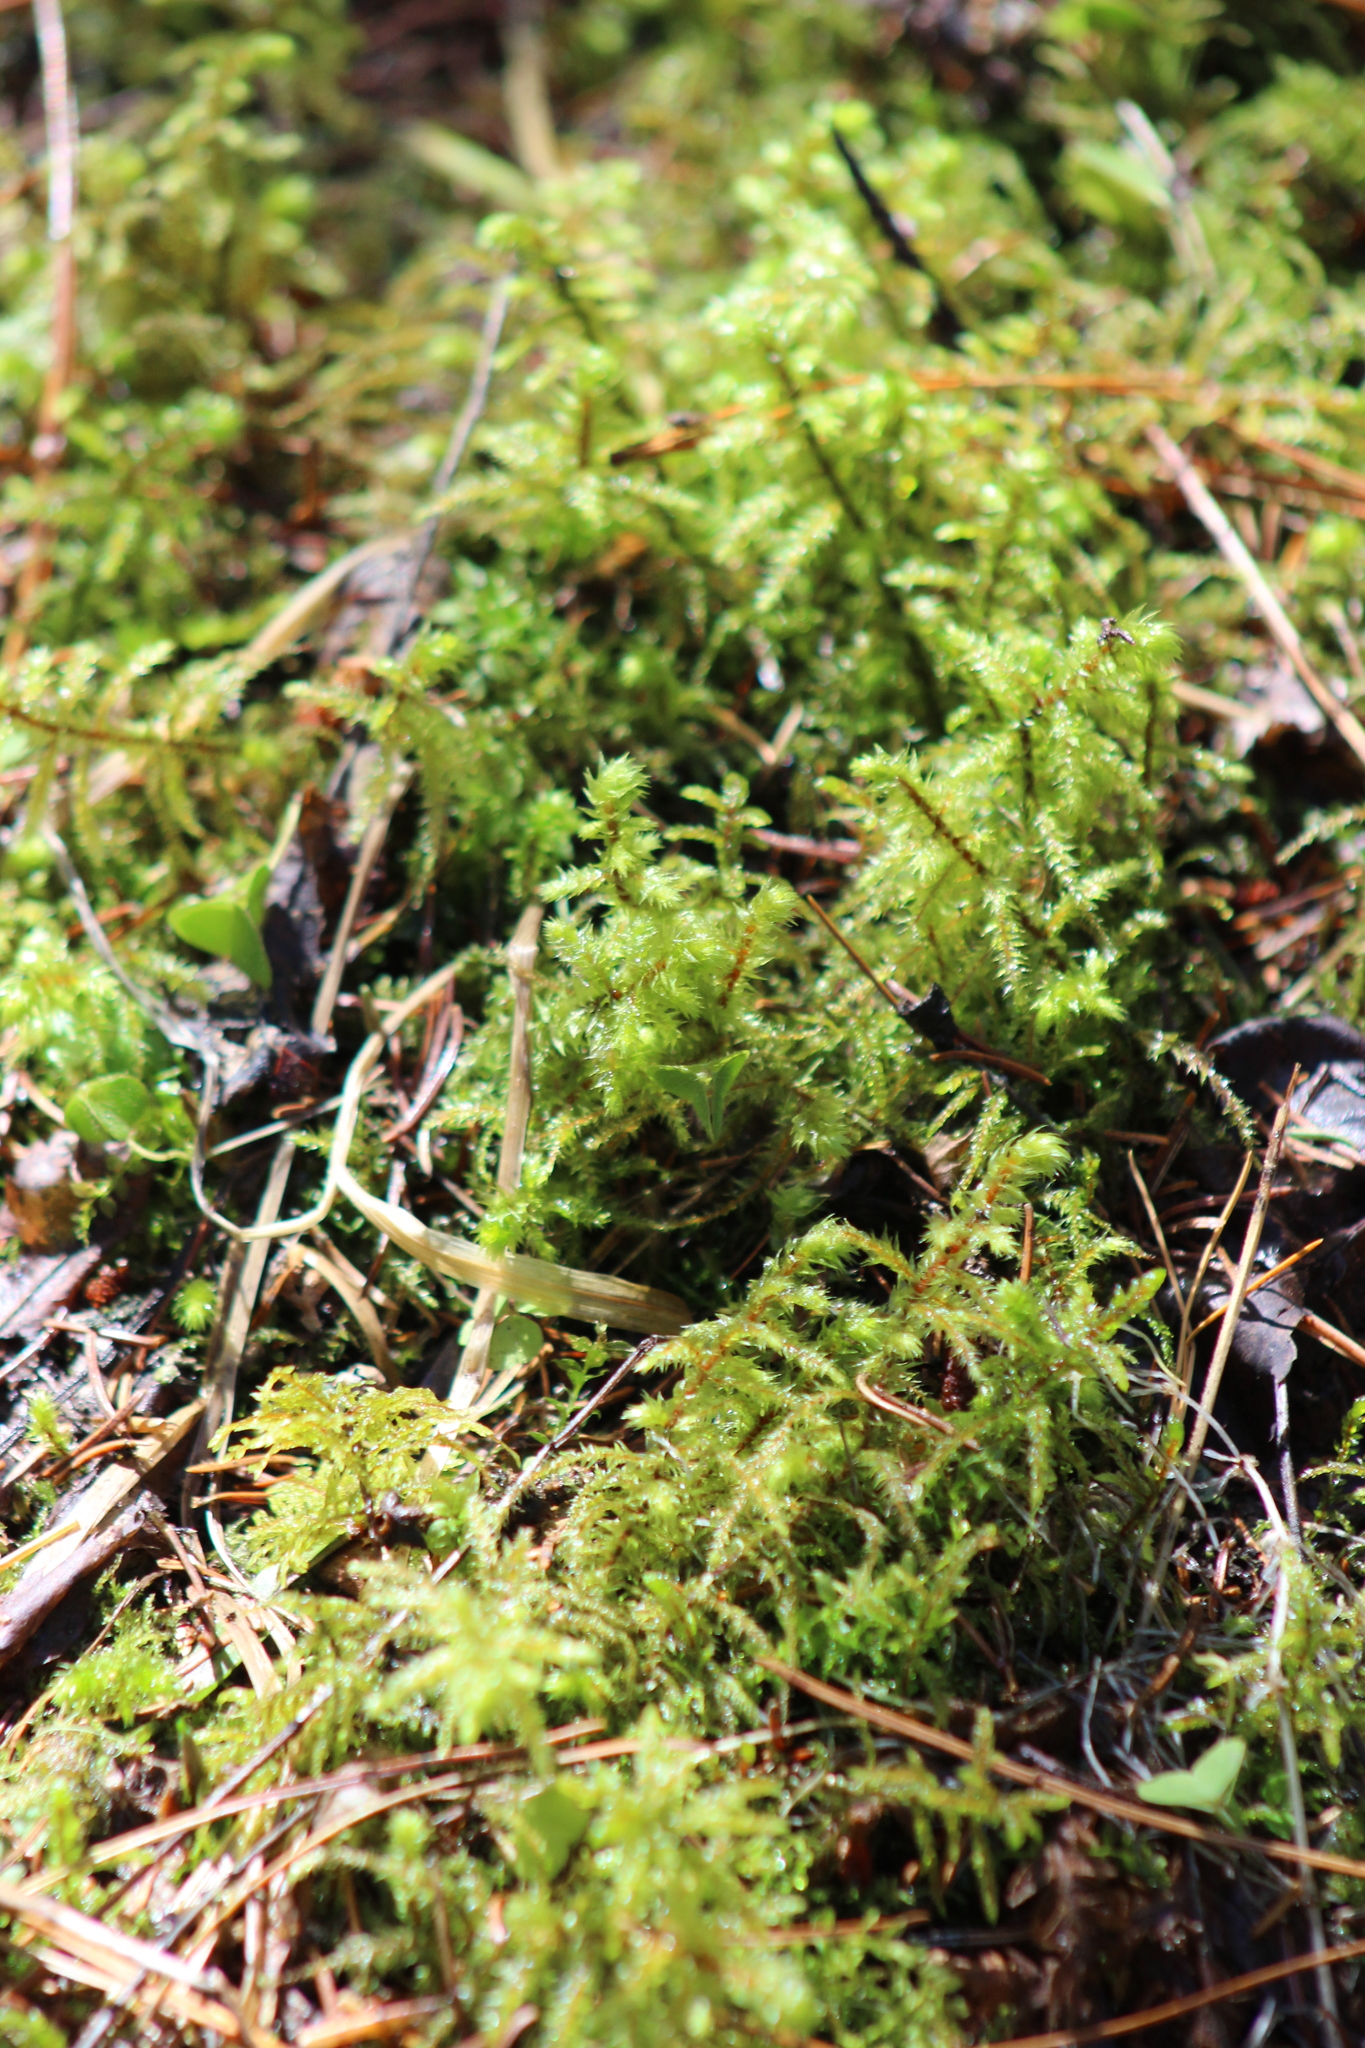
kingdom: Plantae
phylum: Bryophyta
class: Bryopsida
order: Hypnales
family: Hylocomiaceae
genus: Hylocomiadelphus
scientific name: Hylocomiadelphus triquetrus
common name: Rough goose neck moss
